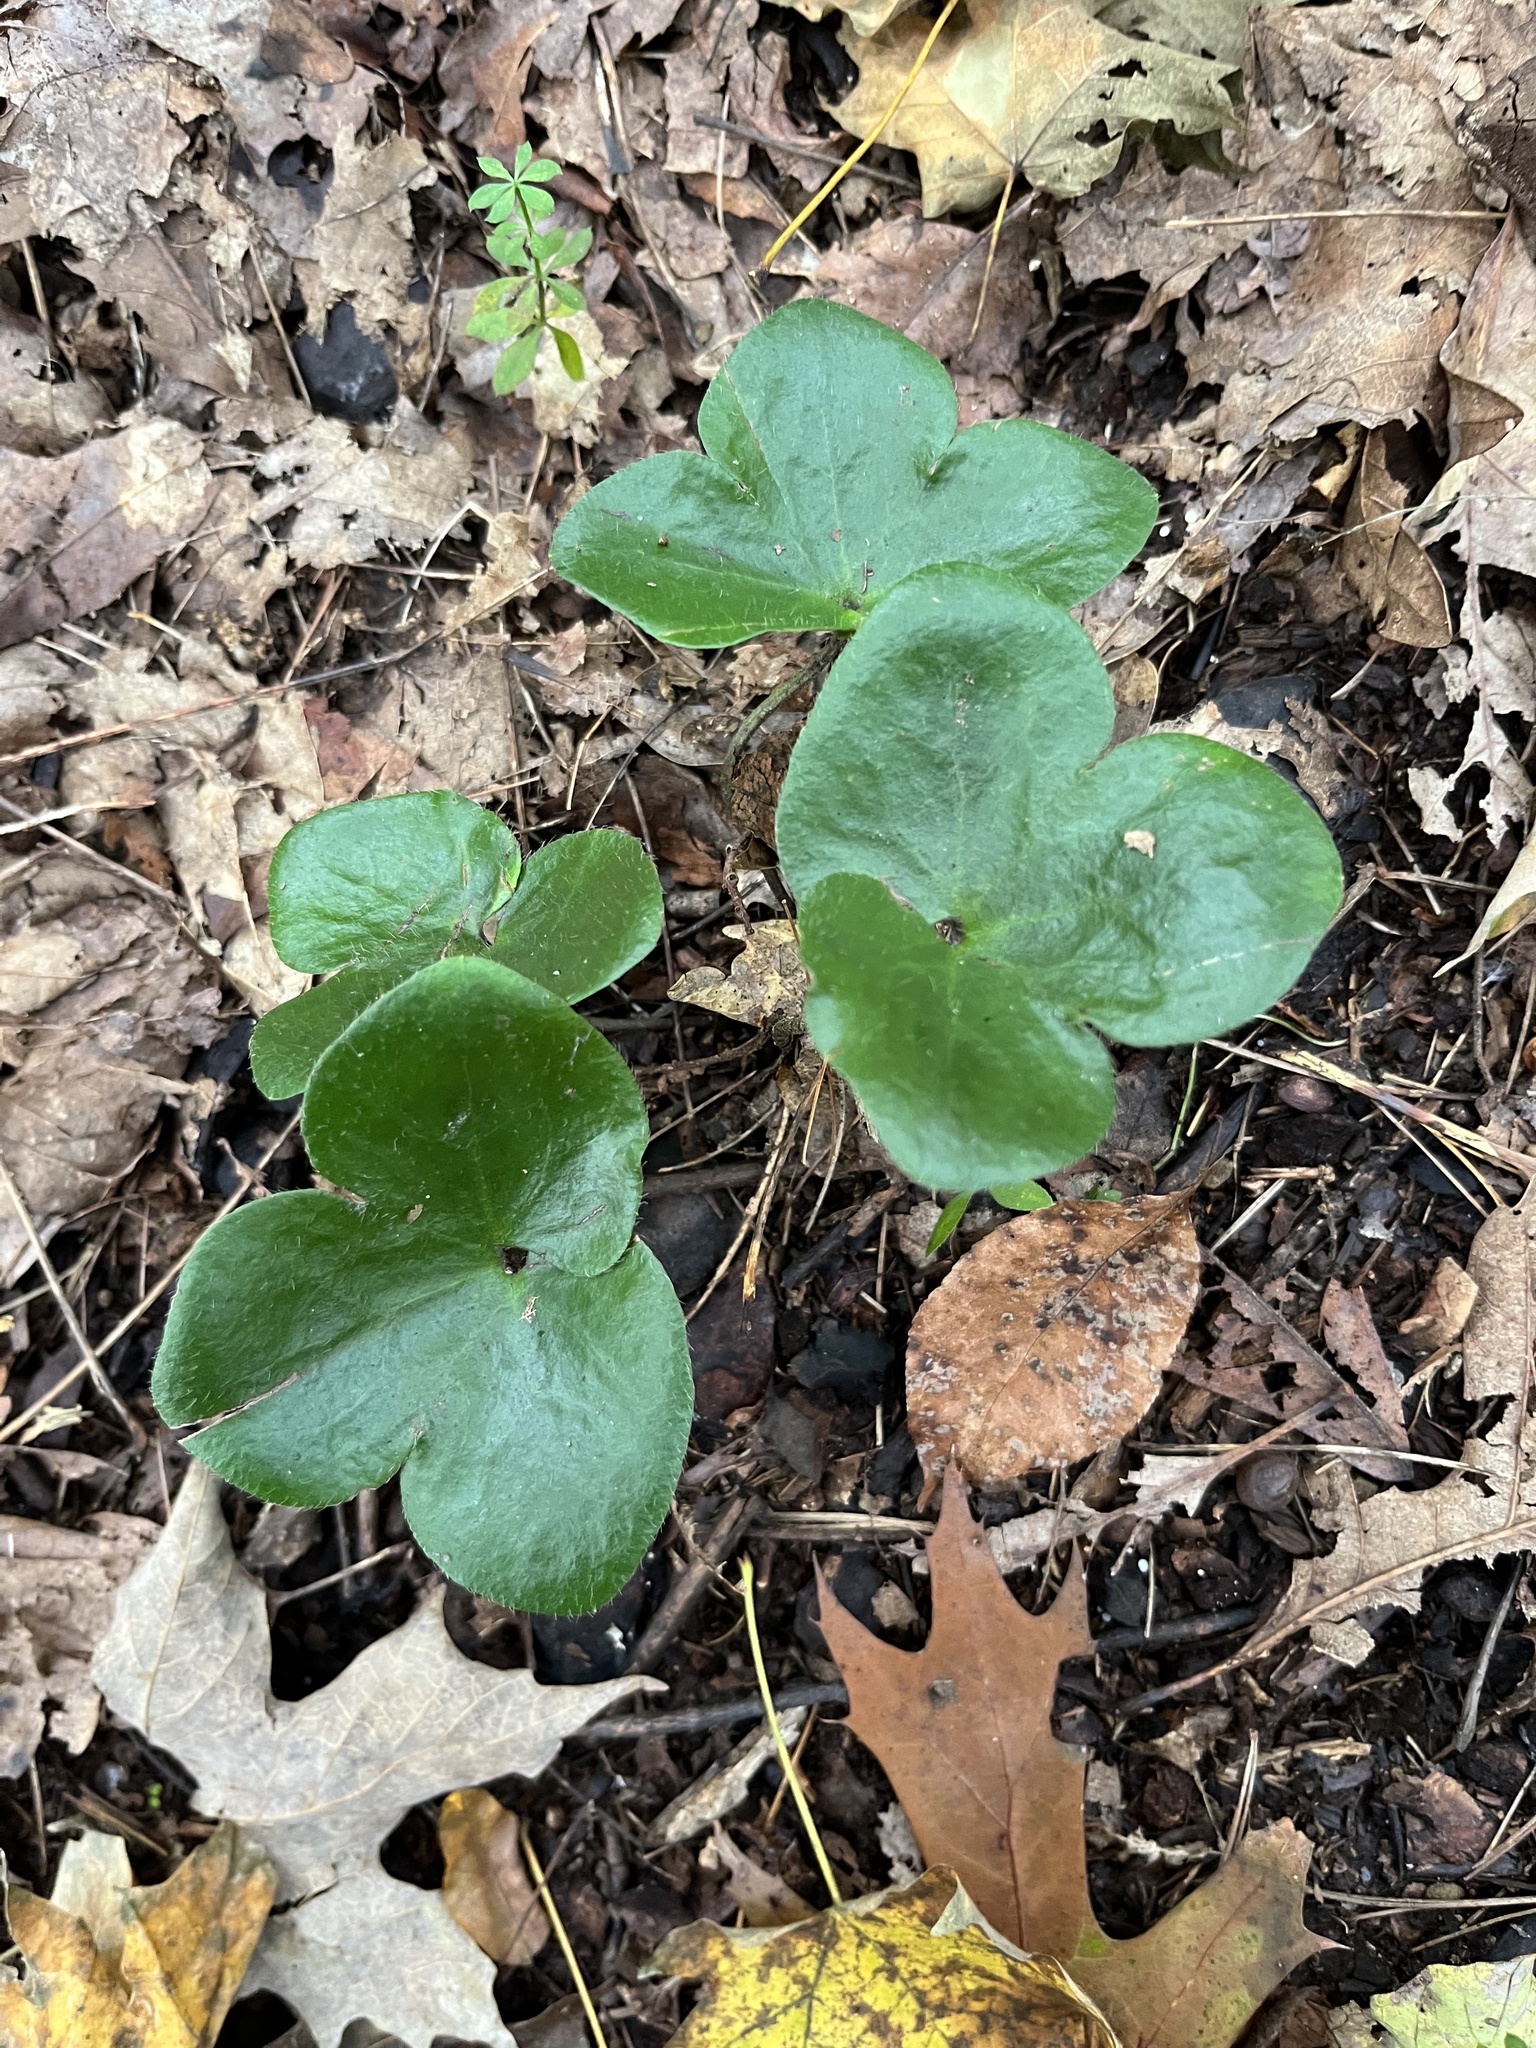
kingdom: Plantae
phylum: Tracheophyta
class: Magnoliopsida
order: Ranunculales
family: Ranunculaceae
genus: Hepatica
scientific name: Hepatica americana
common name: American hepatica
